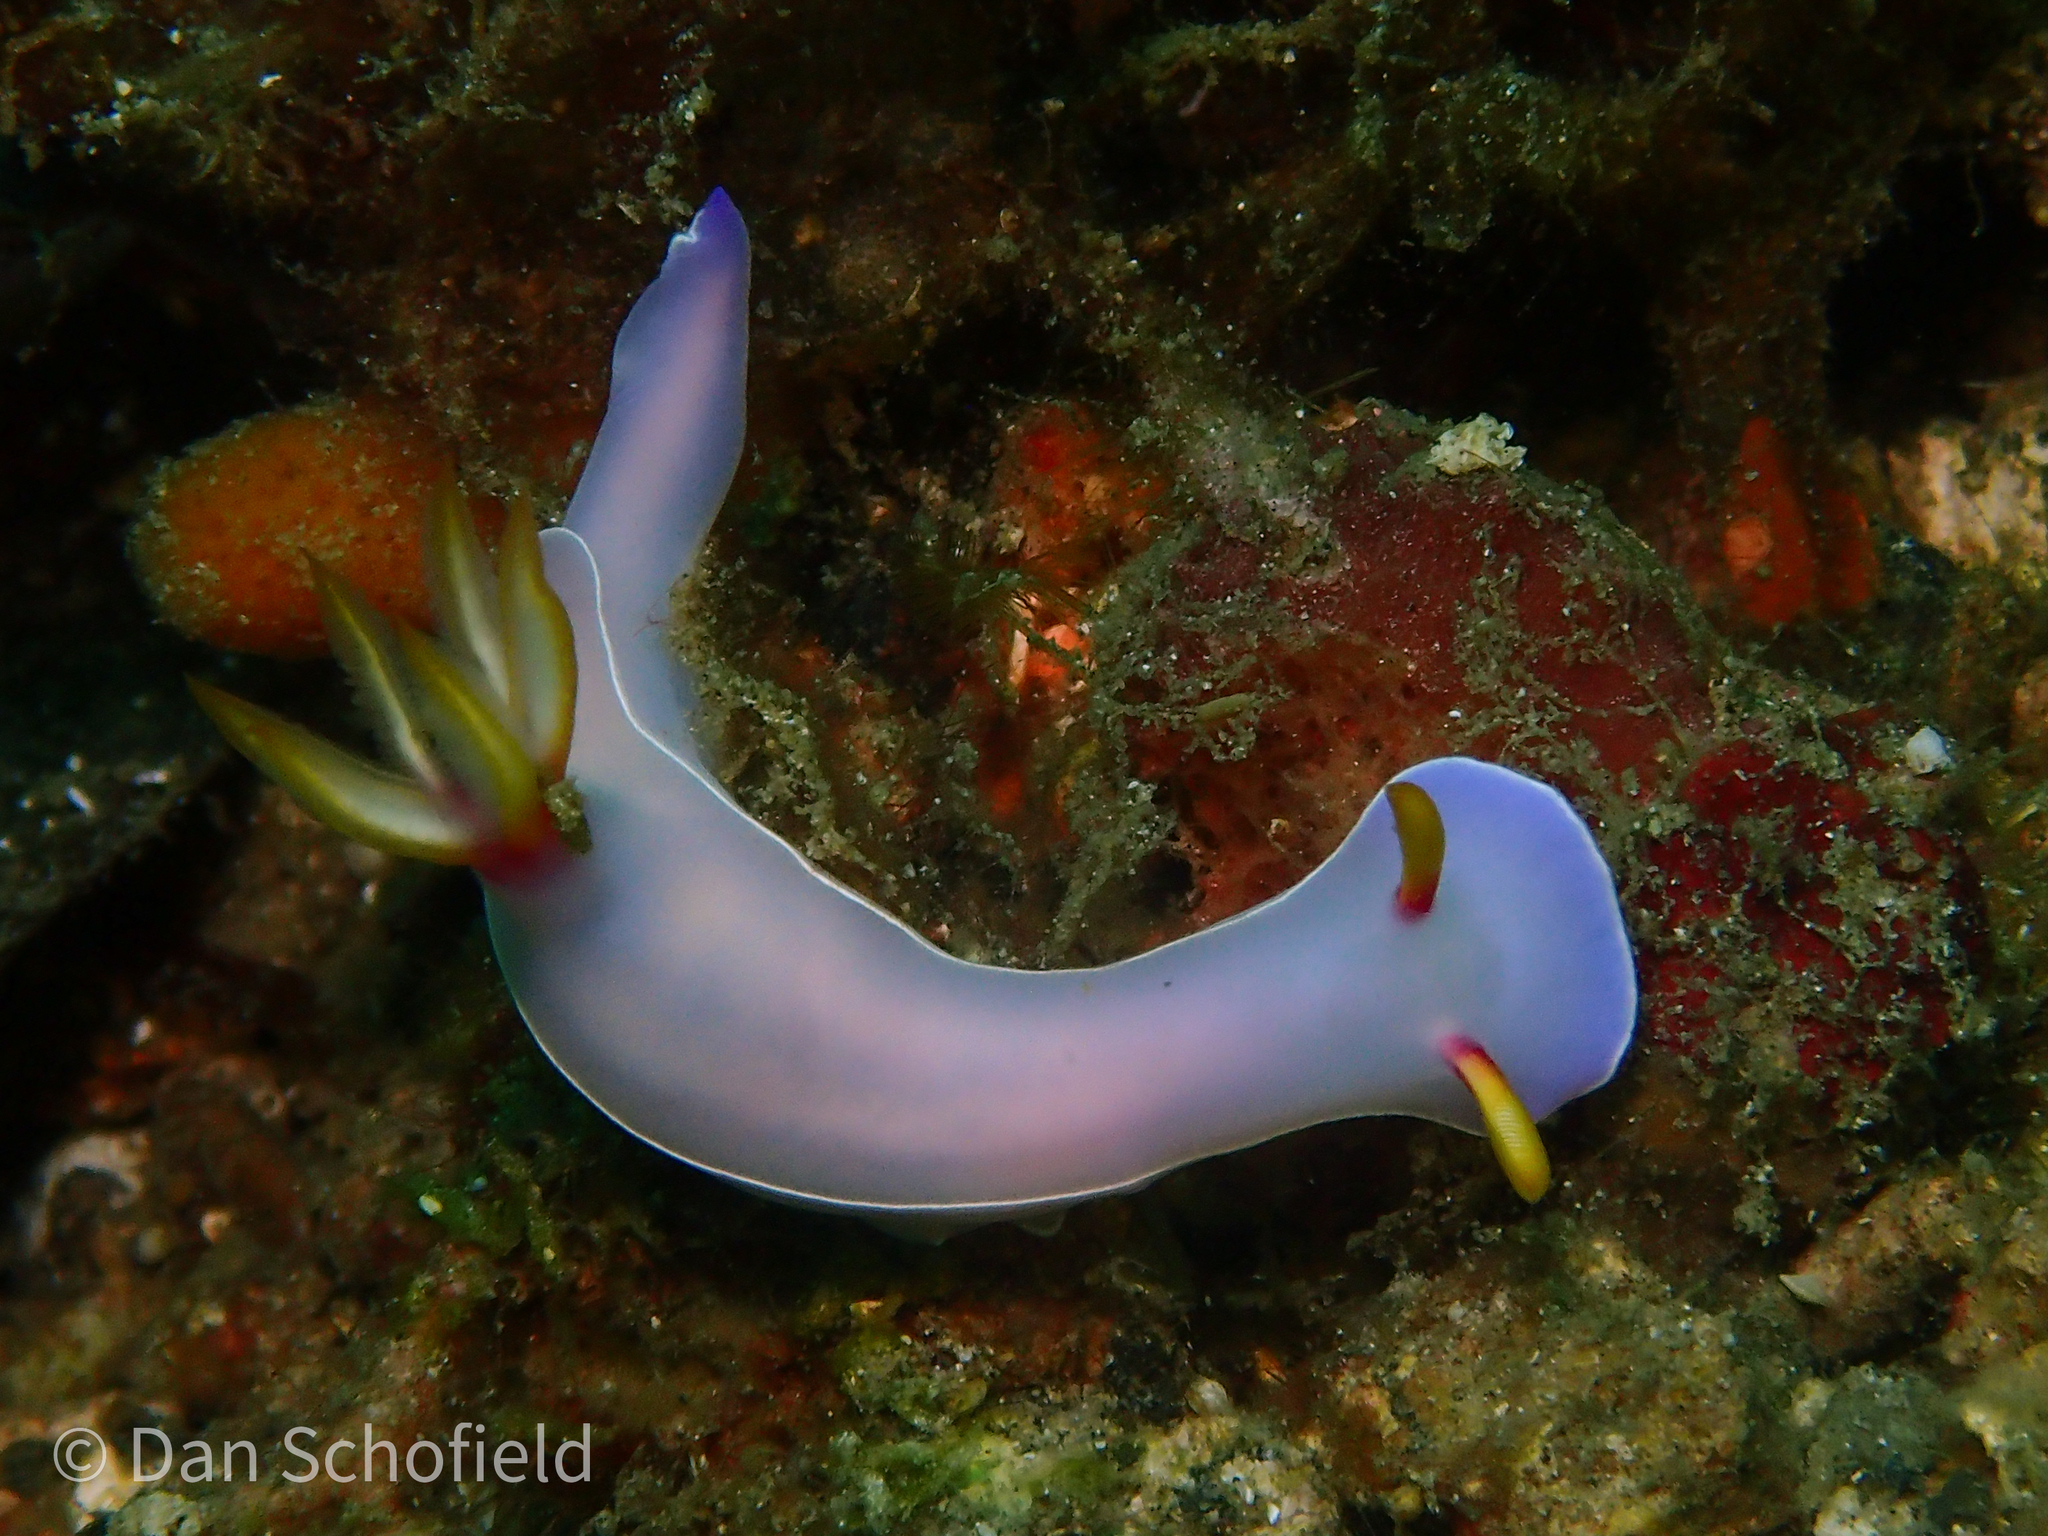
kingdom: Animalia
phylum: Mollusca
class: Gastropoda
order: Nudibranchia
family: Chromodorididae
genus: Hypselodoris
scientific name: Hypselodoris bullockii
